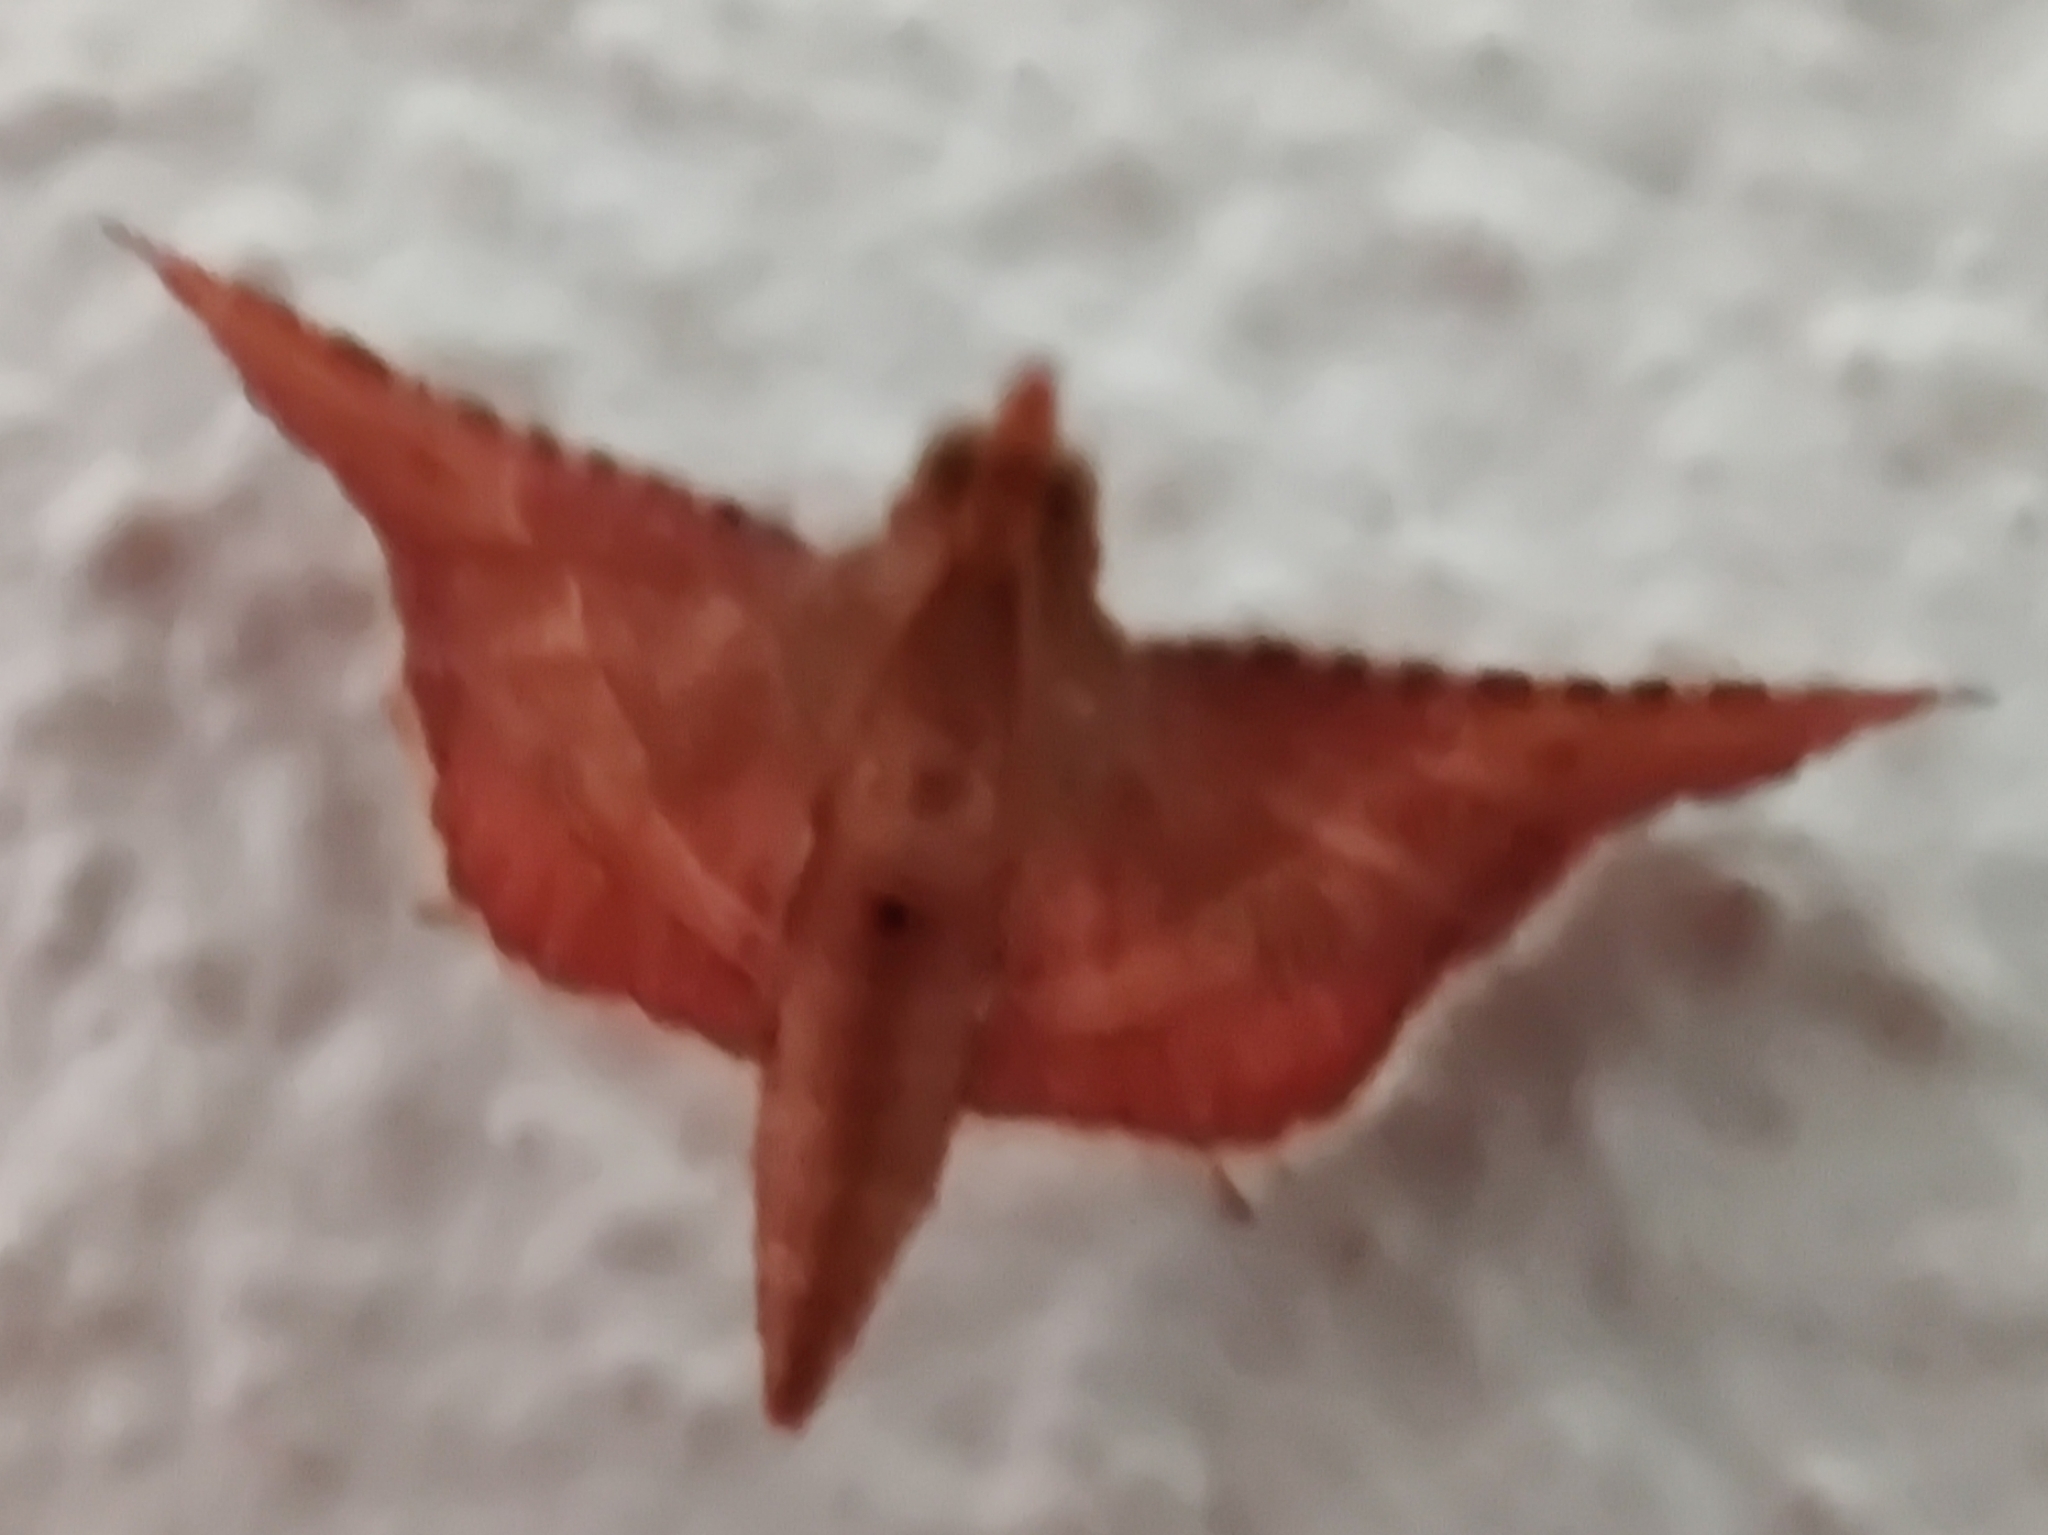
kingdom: Animalia
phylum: Arthropoda
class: Insecta
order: Lepidoptera
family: Pyralidae
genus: Endotricha
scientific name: Endotricha flammealis
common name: Rosy tabby
